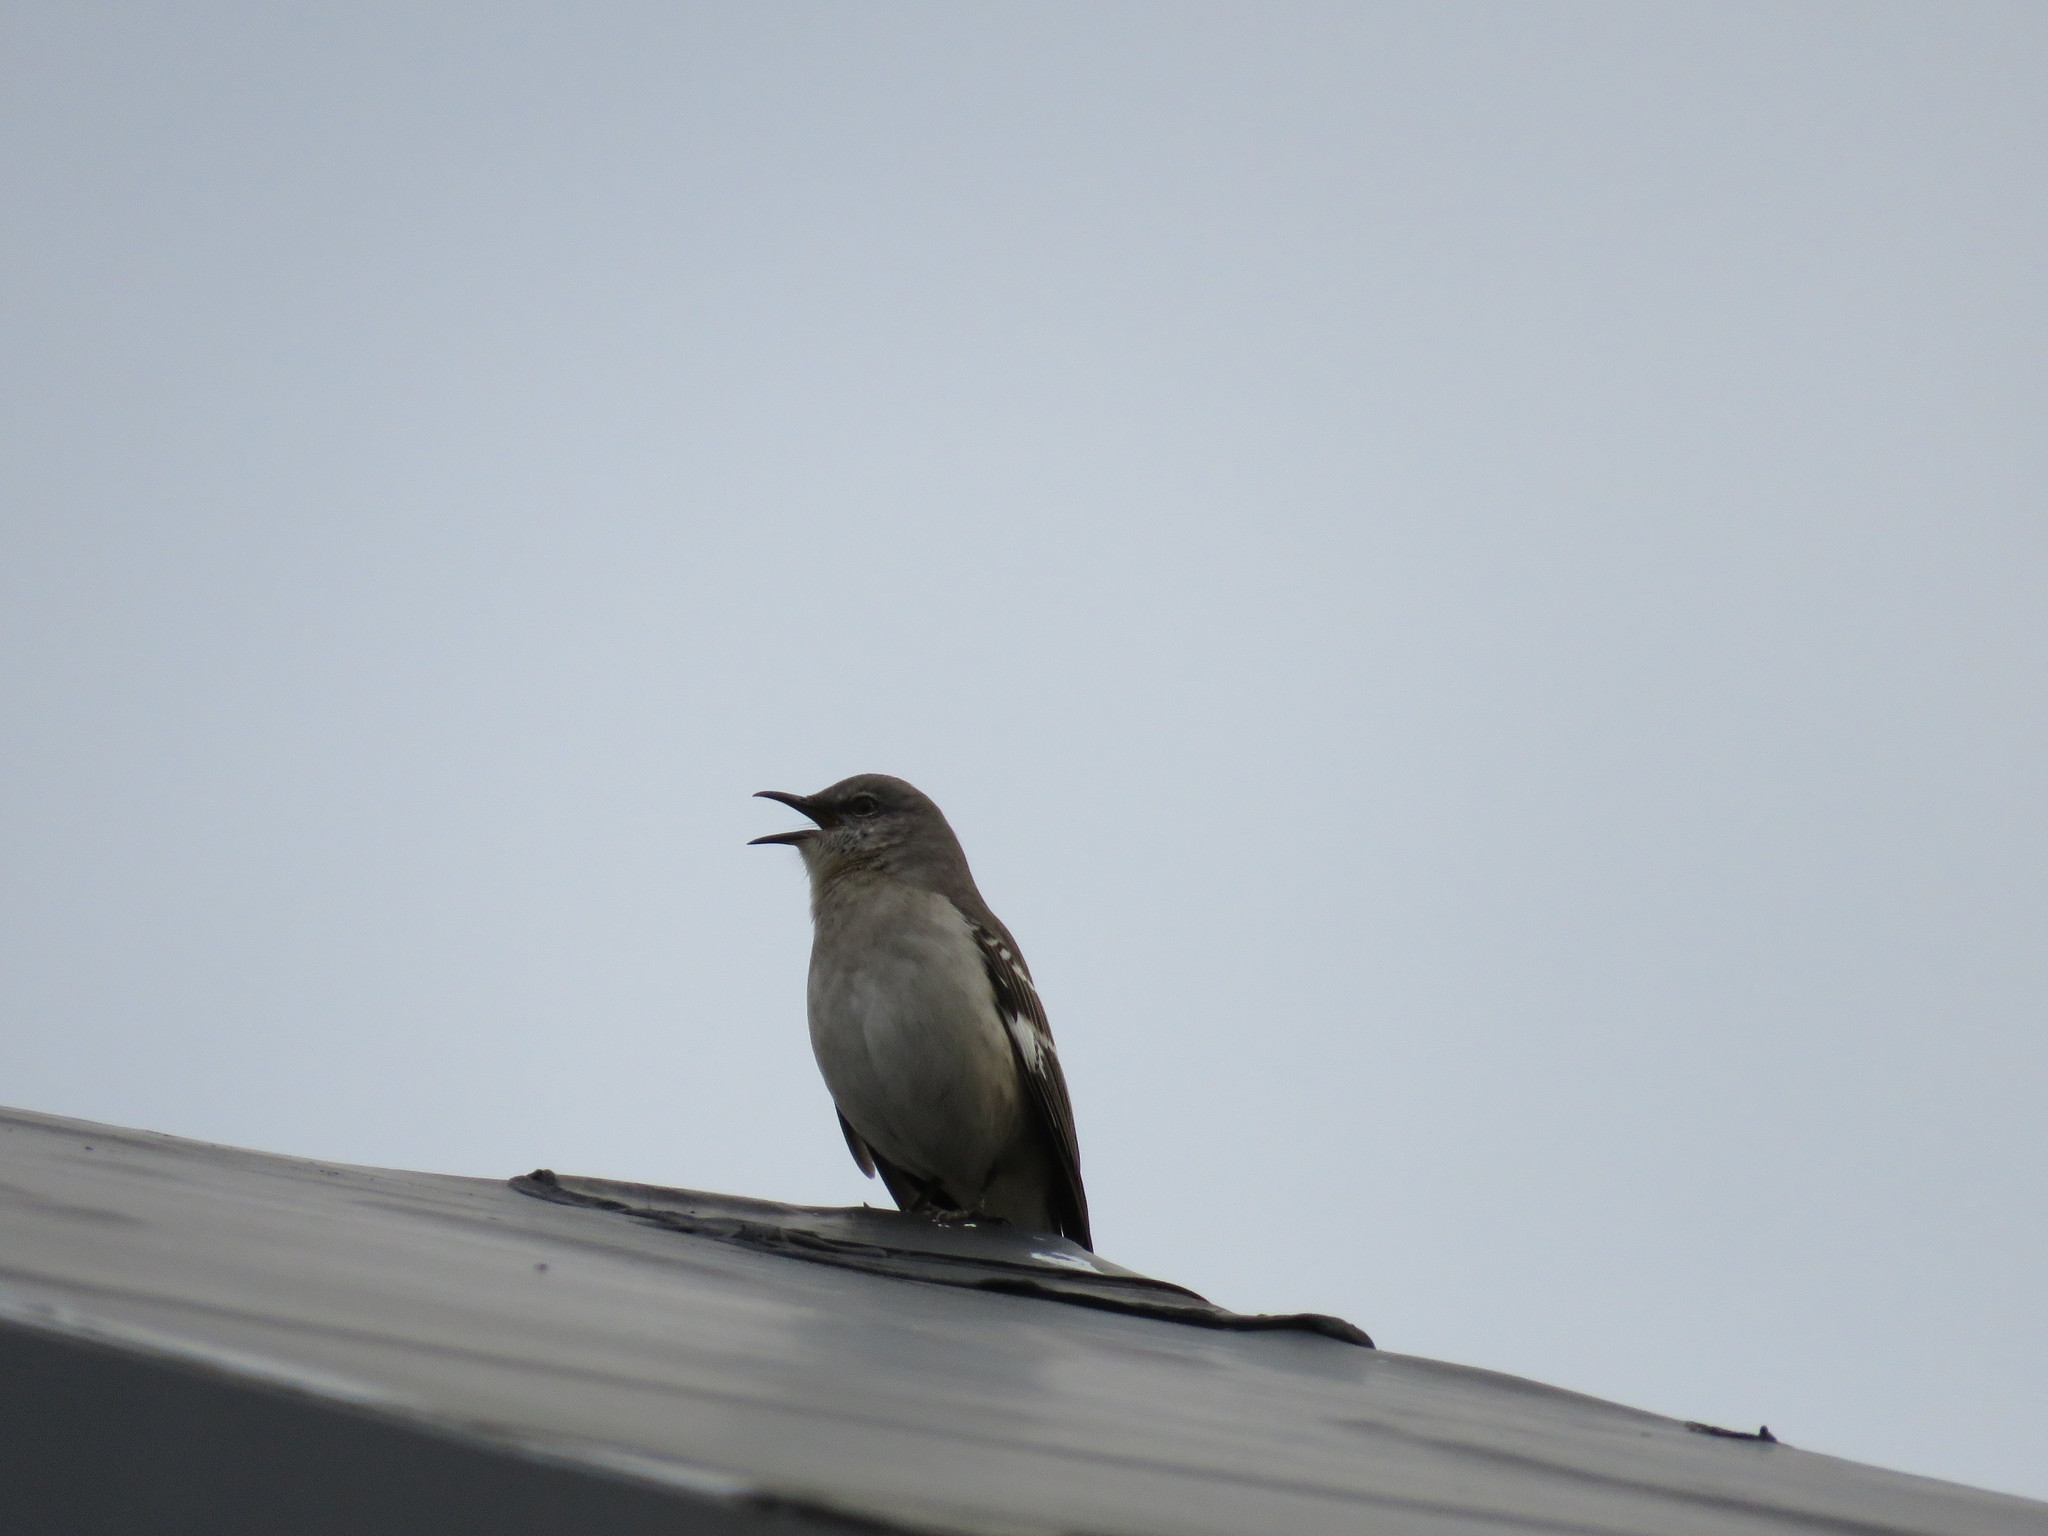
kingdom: Animalia
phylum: Chordata
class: Aves
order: Passeriformes
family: Mimidae
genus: Mimus
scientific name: Mimus polyglottos
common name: Northern mockingbird
